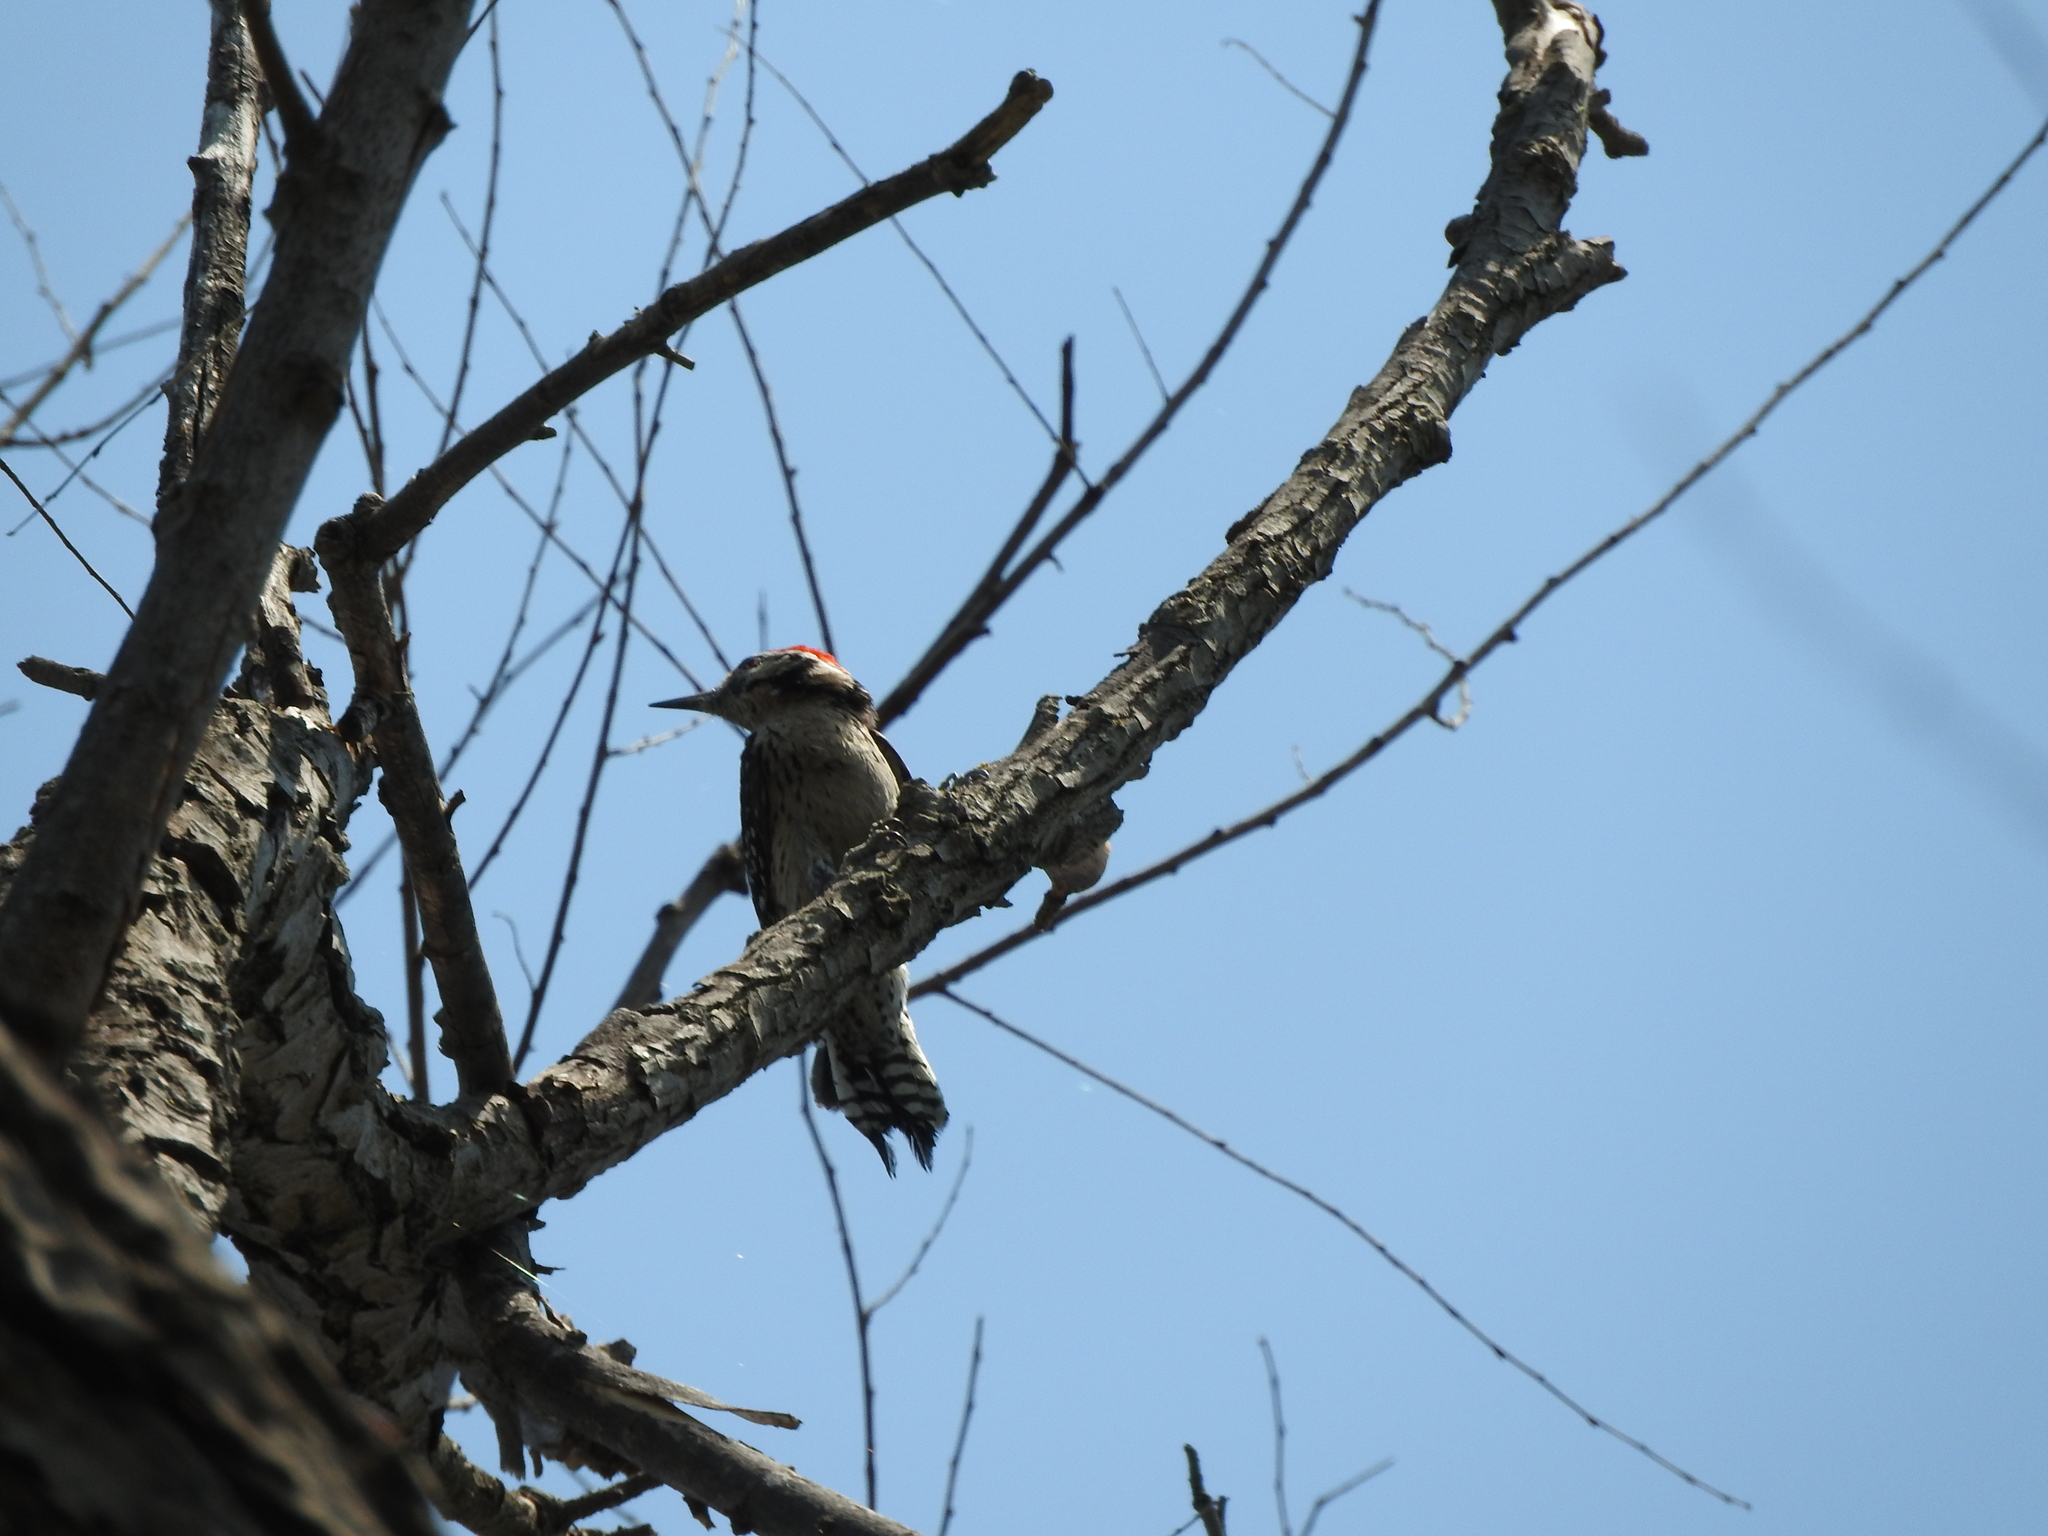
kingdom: Animalia
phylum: Chordata
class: Aves
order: Piciformes
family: Picidae
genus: Dryobates
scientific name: Dryobates scalaris
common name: Ladder-backed woodpecker
